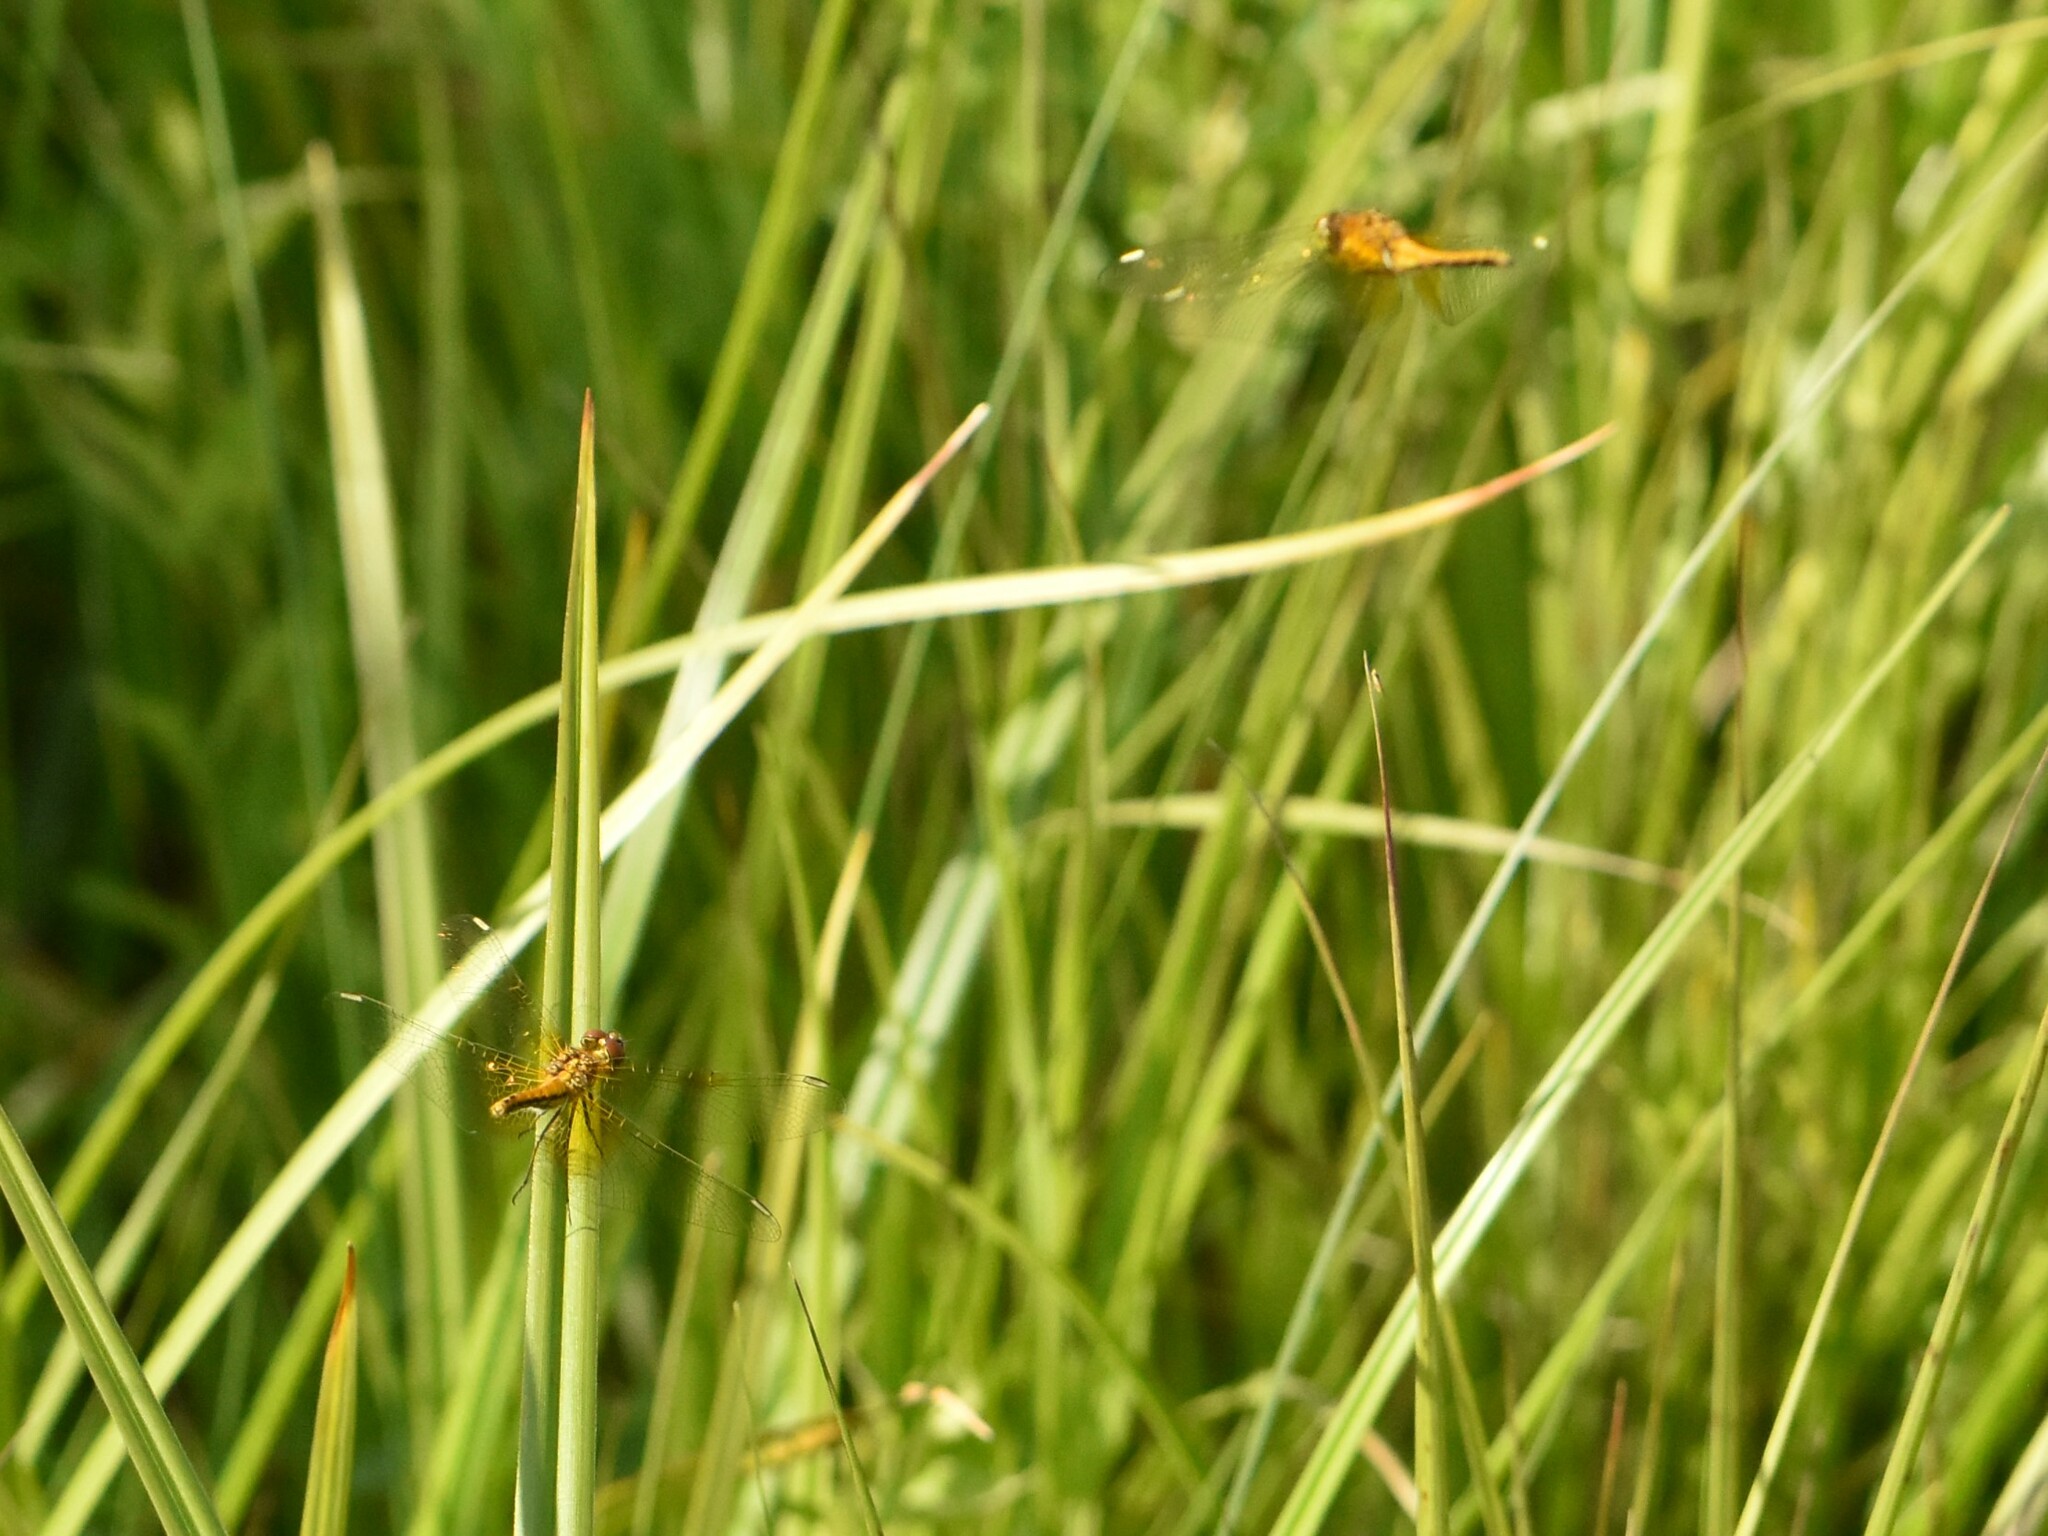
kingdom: Animalia
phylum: Arthropoda
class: Insecta
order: Odonata
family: Libellulidae
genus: Sympetrum
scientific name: Sympetrum flaveolum
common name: Yellow-winged darter
